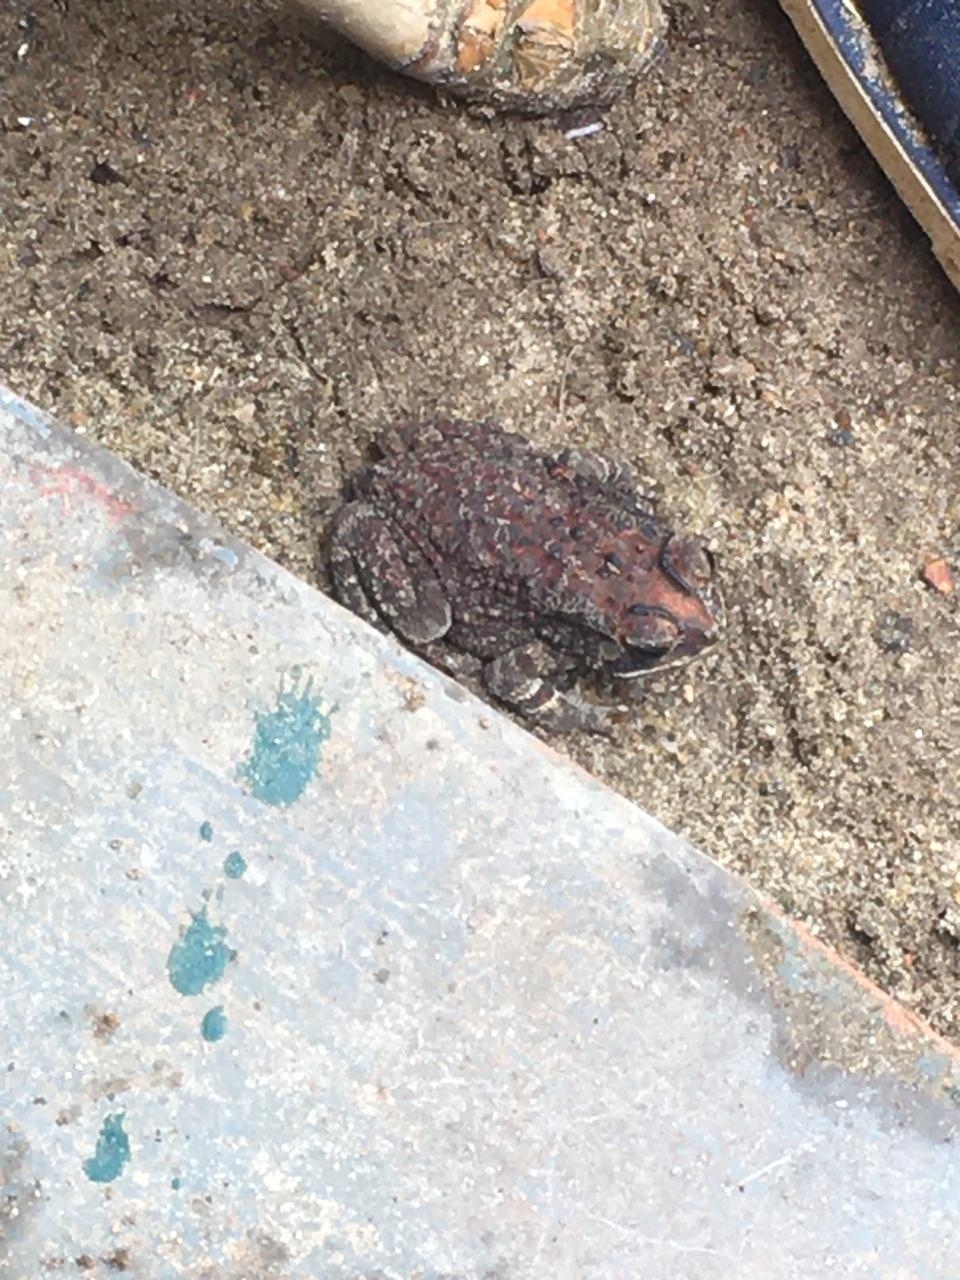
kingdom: Animalia
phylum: Chordata
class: Amphibia
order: Anura
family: Bufonidae
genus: Duttaphrynus
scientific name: Duttaphrynus melanostictus
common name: Common sunda toad
